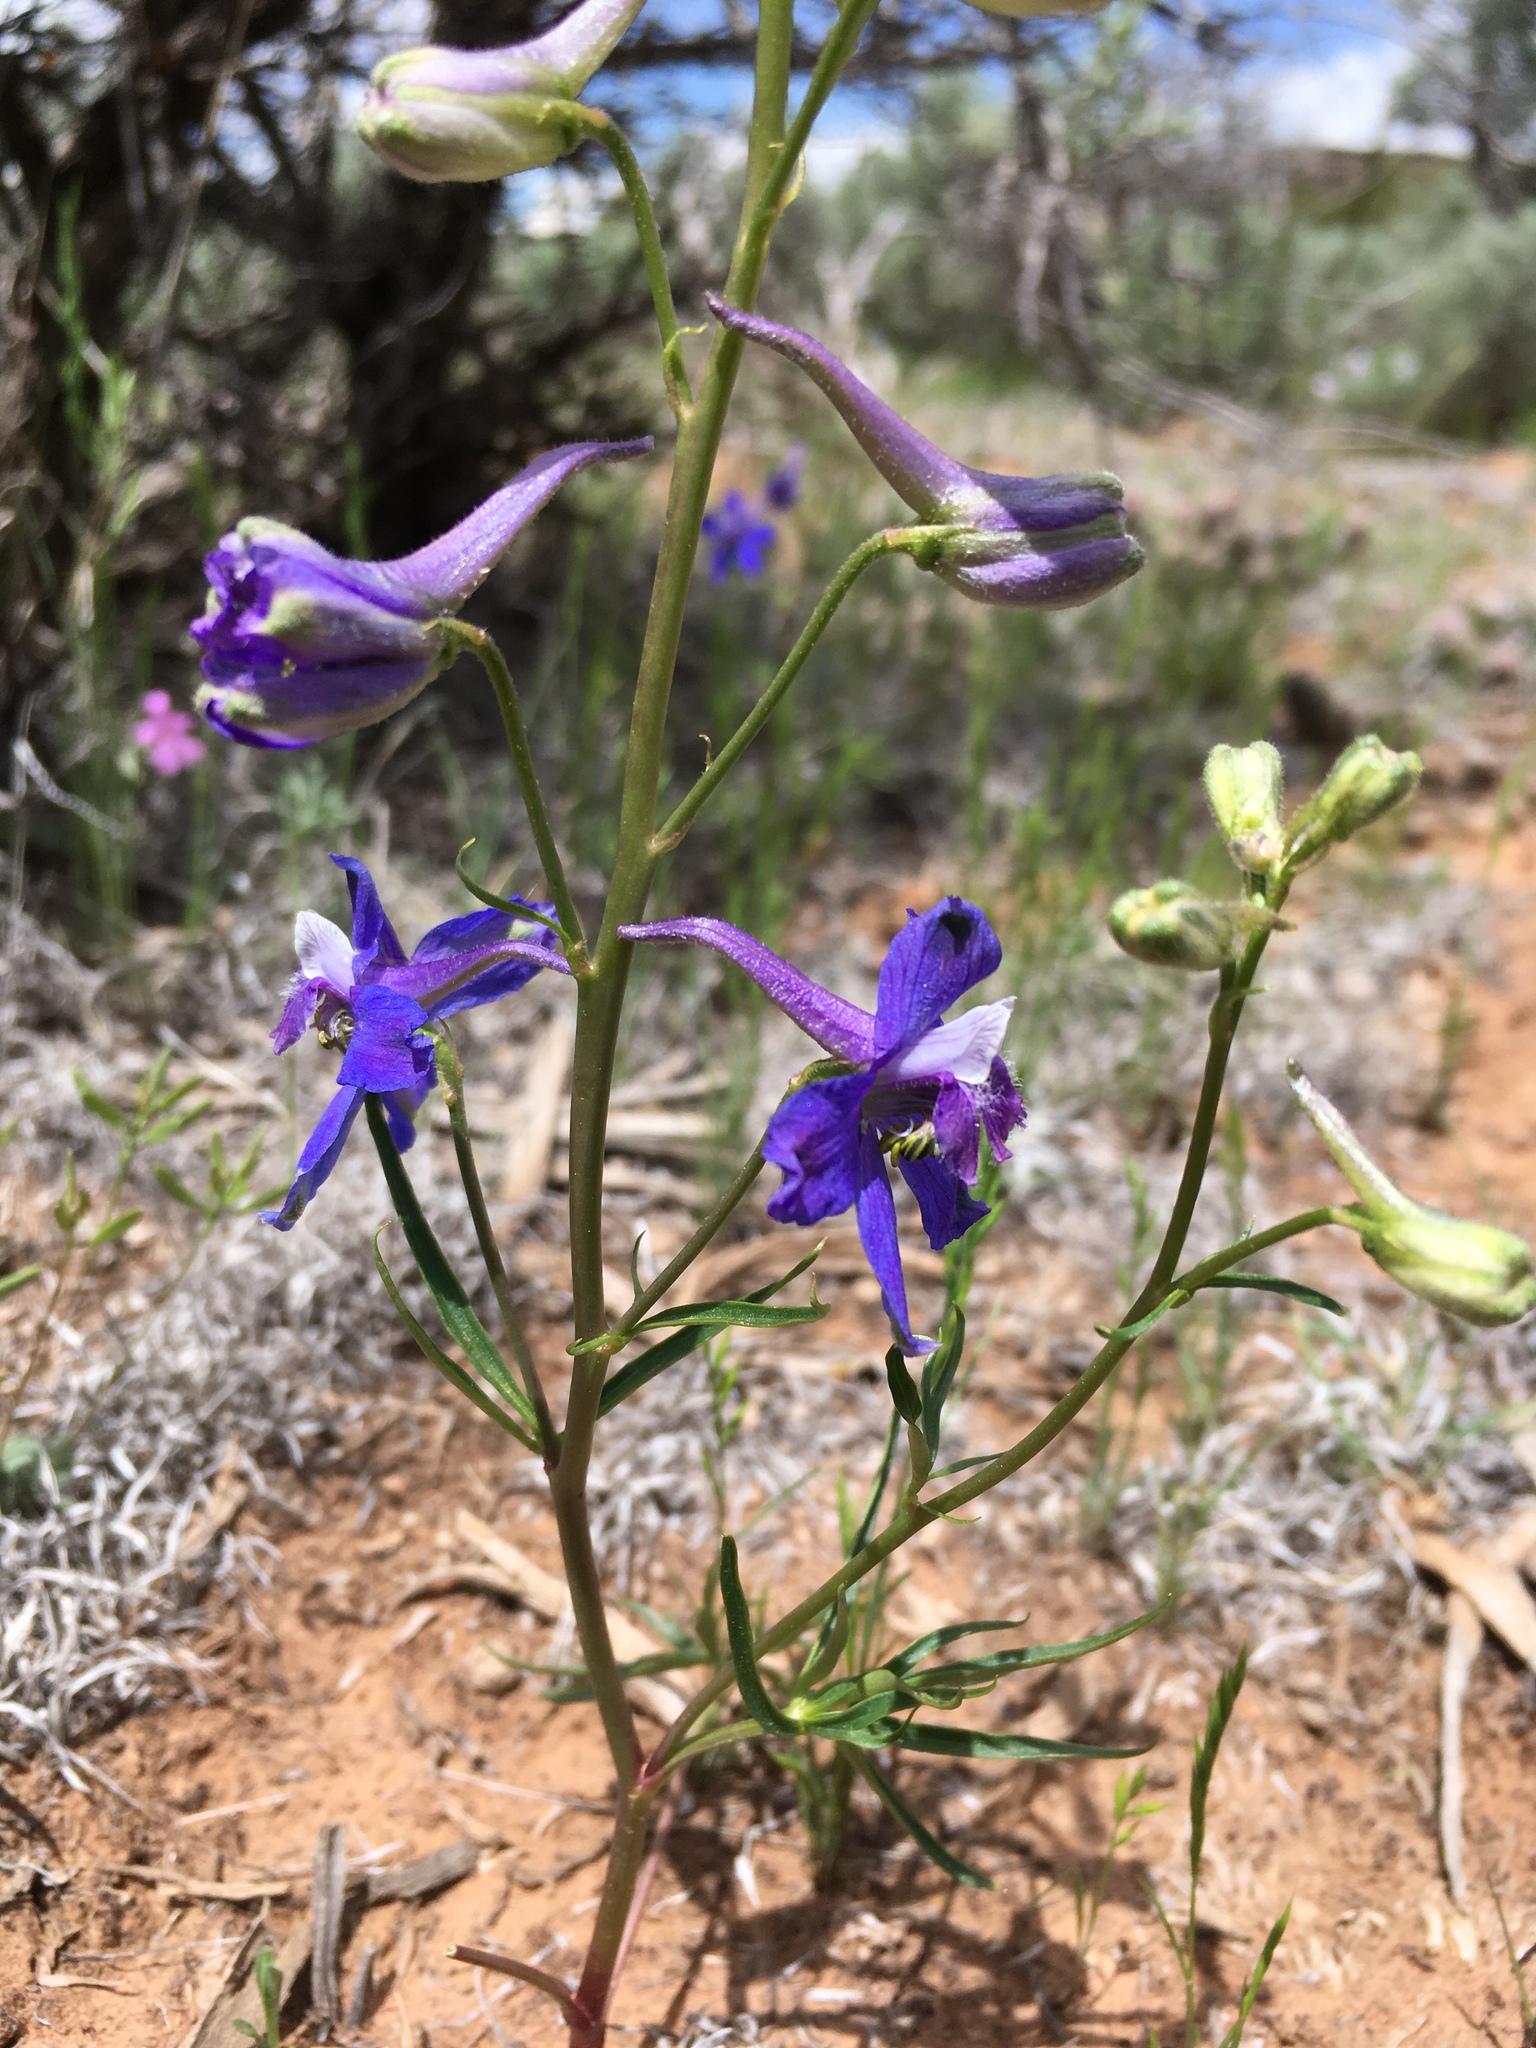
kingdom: Plantae
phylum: Tracheophyta
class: Magnoliopsida
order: Ranunculales
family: Ranunculaceae
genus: Delphinium
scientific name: Delphinium nuttallianum
